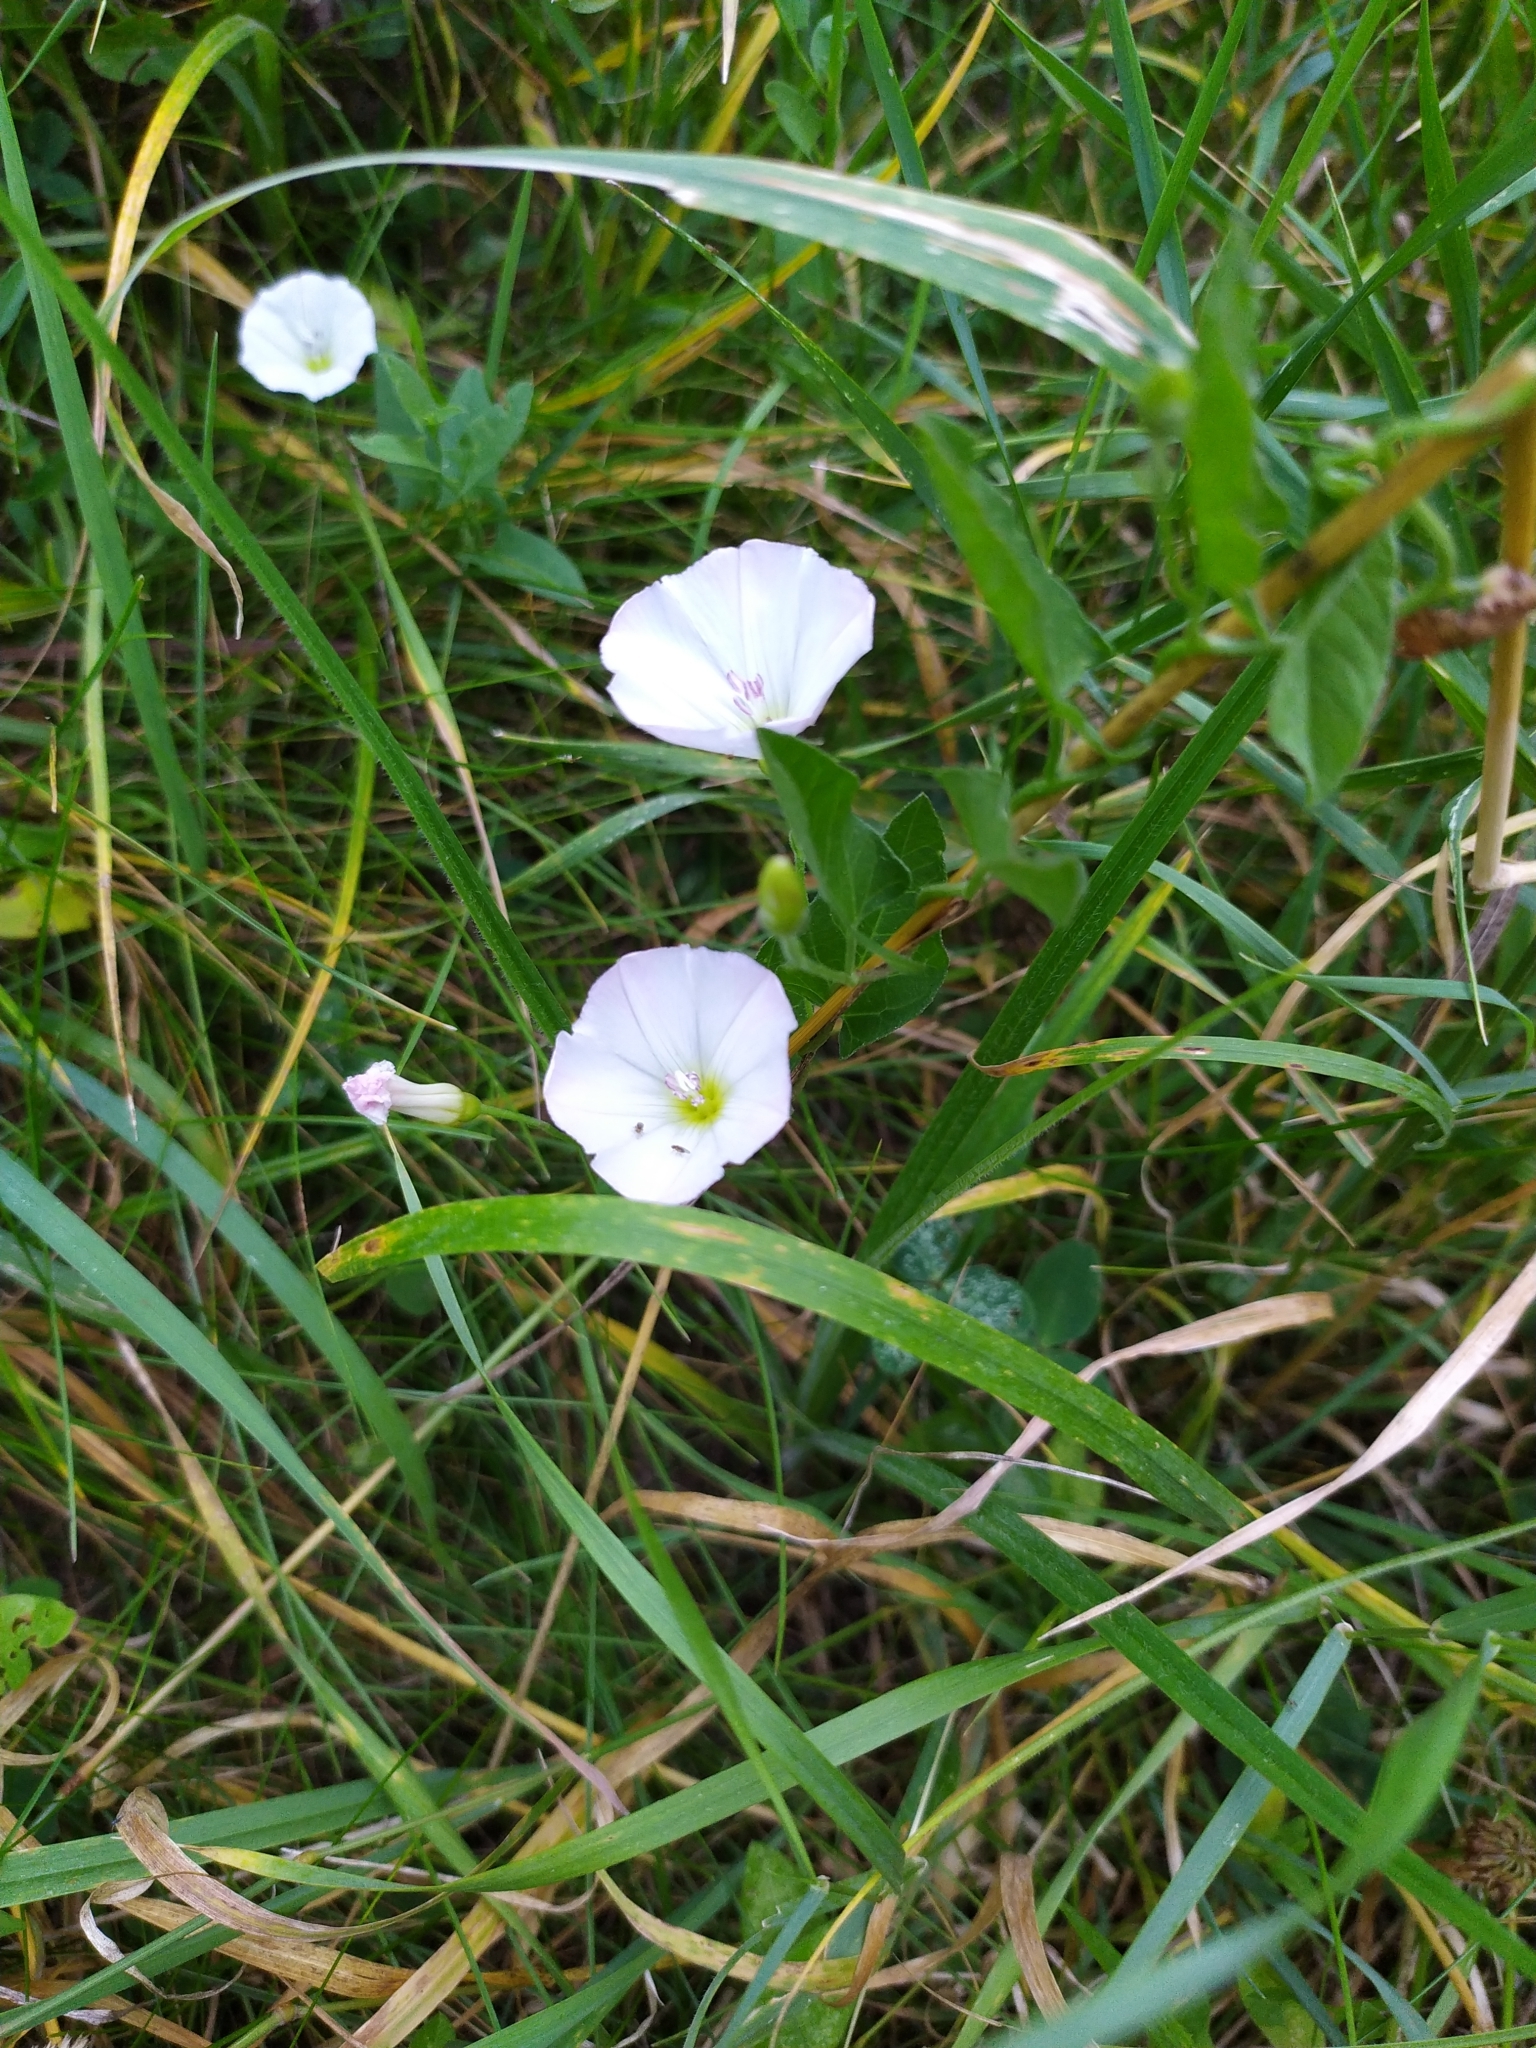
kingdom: Plantae
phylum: Tracheophyta
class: Magnoliopsida
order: Solanales
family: Convolvulaceae
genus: Convolvulus
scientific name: Convolvulus arvensis
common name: Field bindweed
